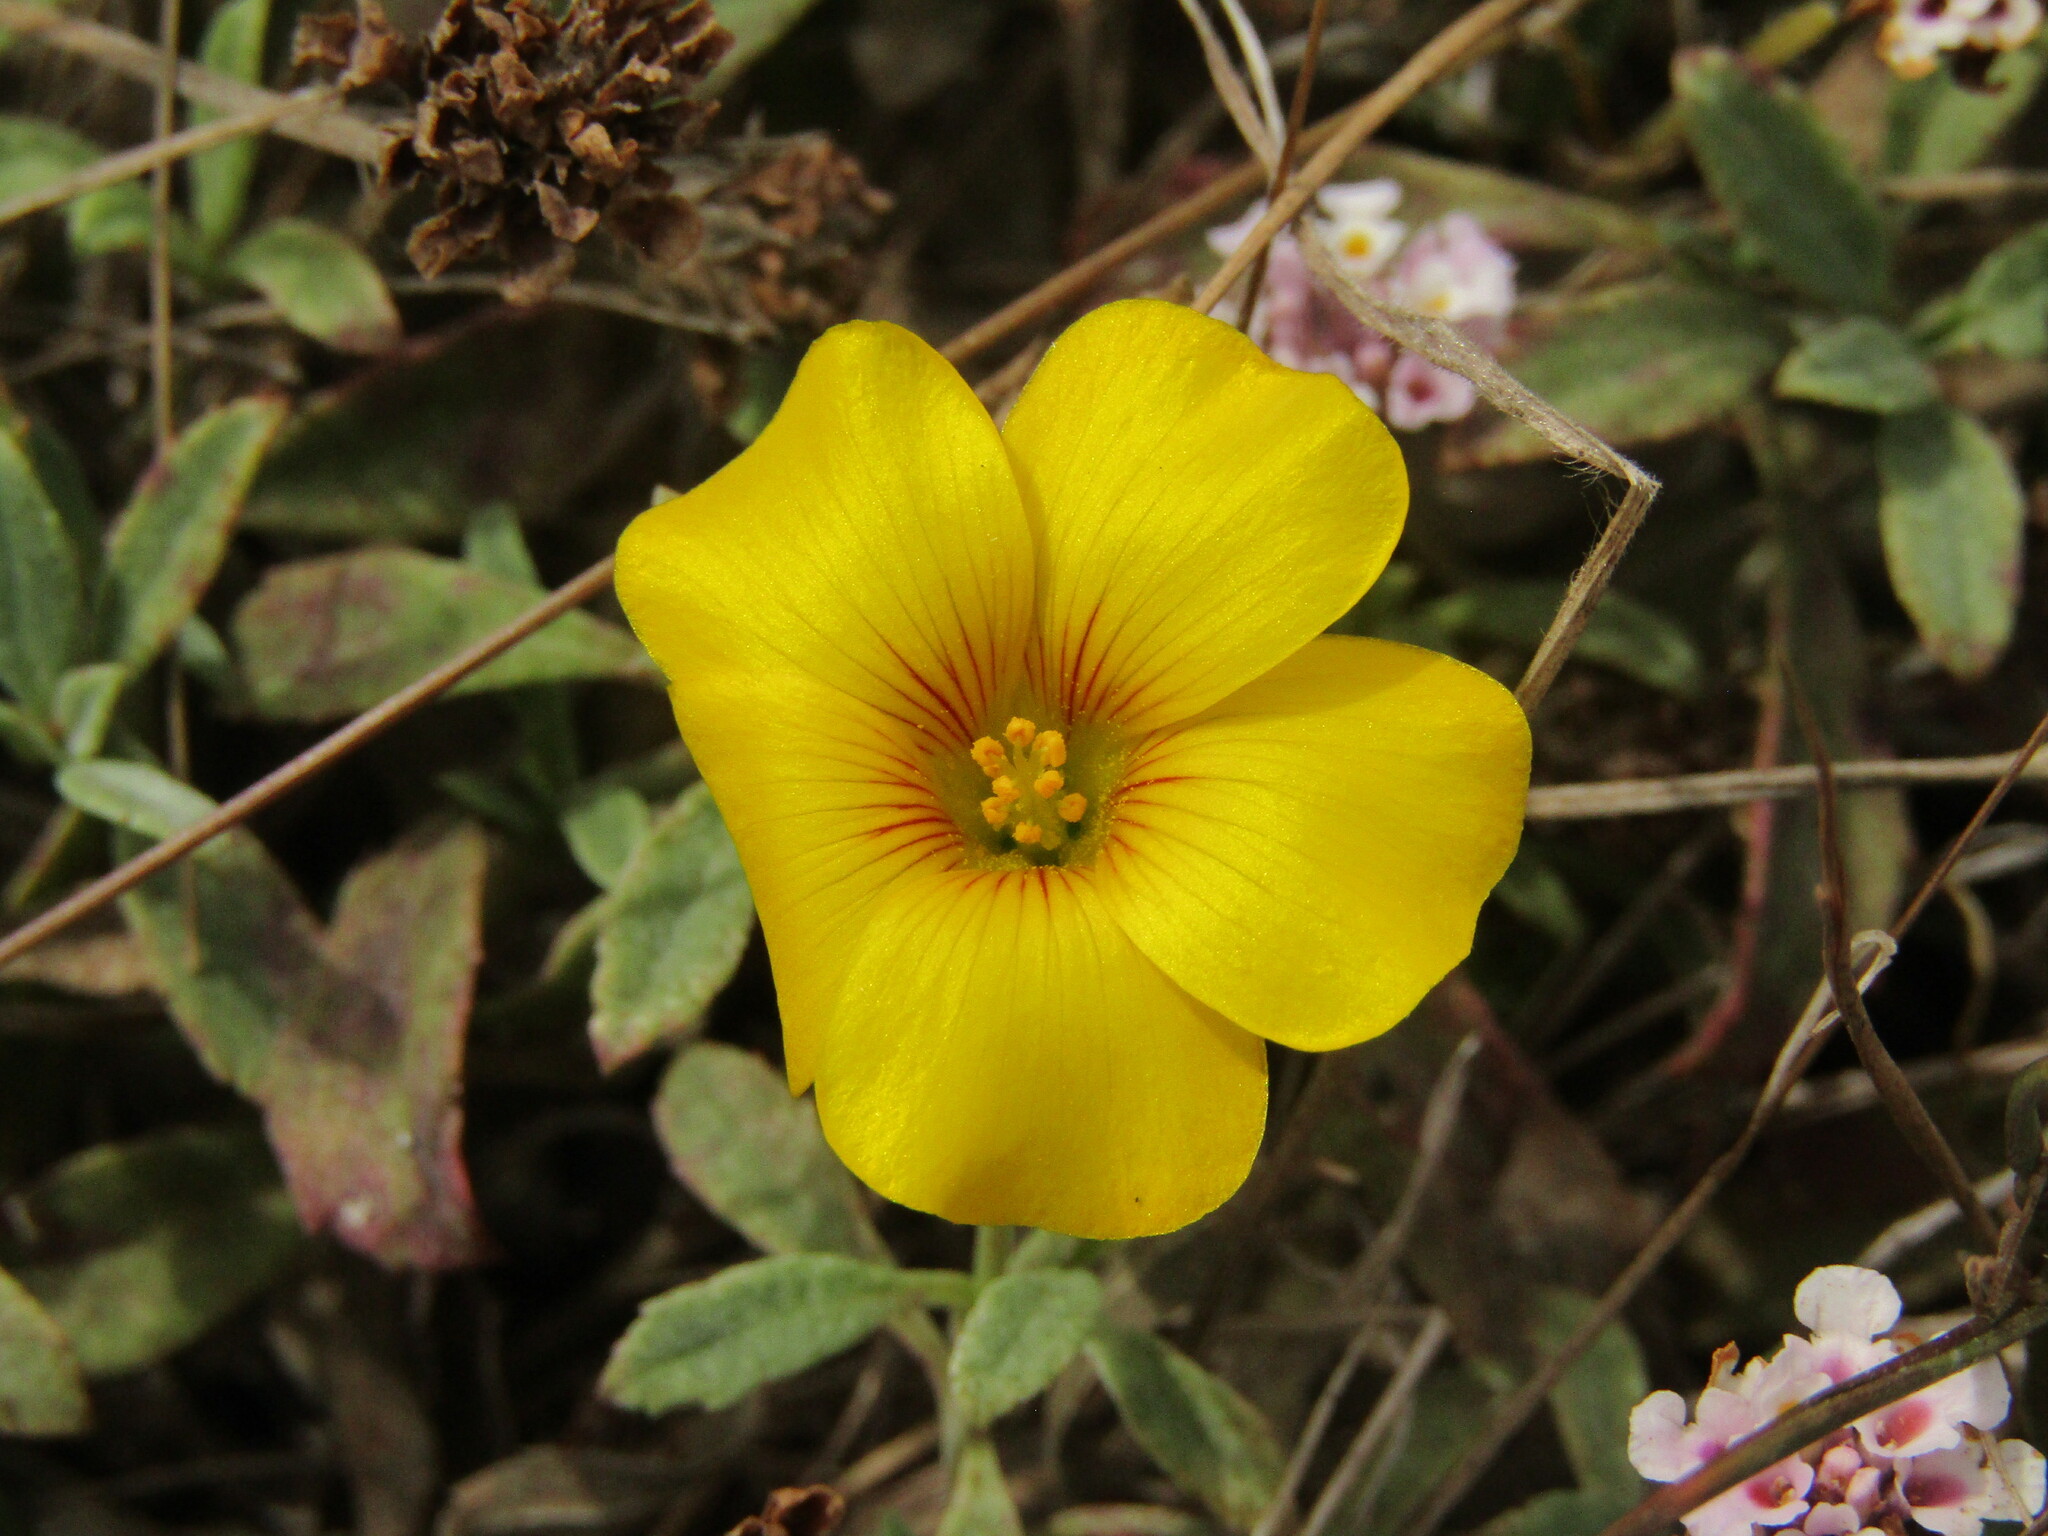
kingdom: Plantae
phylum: Tracheophyta
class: Magnoliopsida
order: Oxalidales
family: Oxalidaceae
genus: Oxalis
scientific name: Oxalis perdicaria
